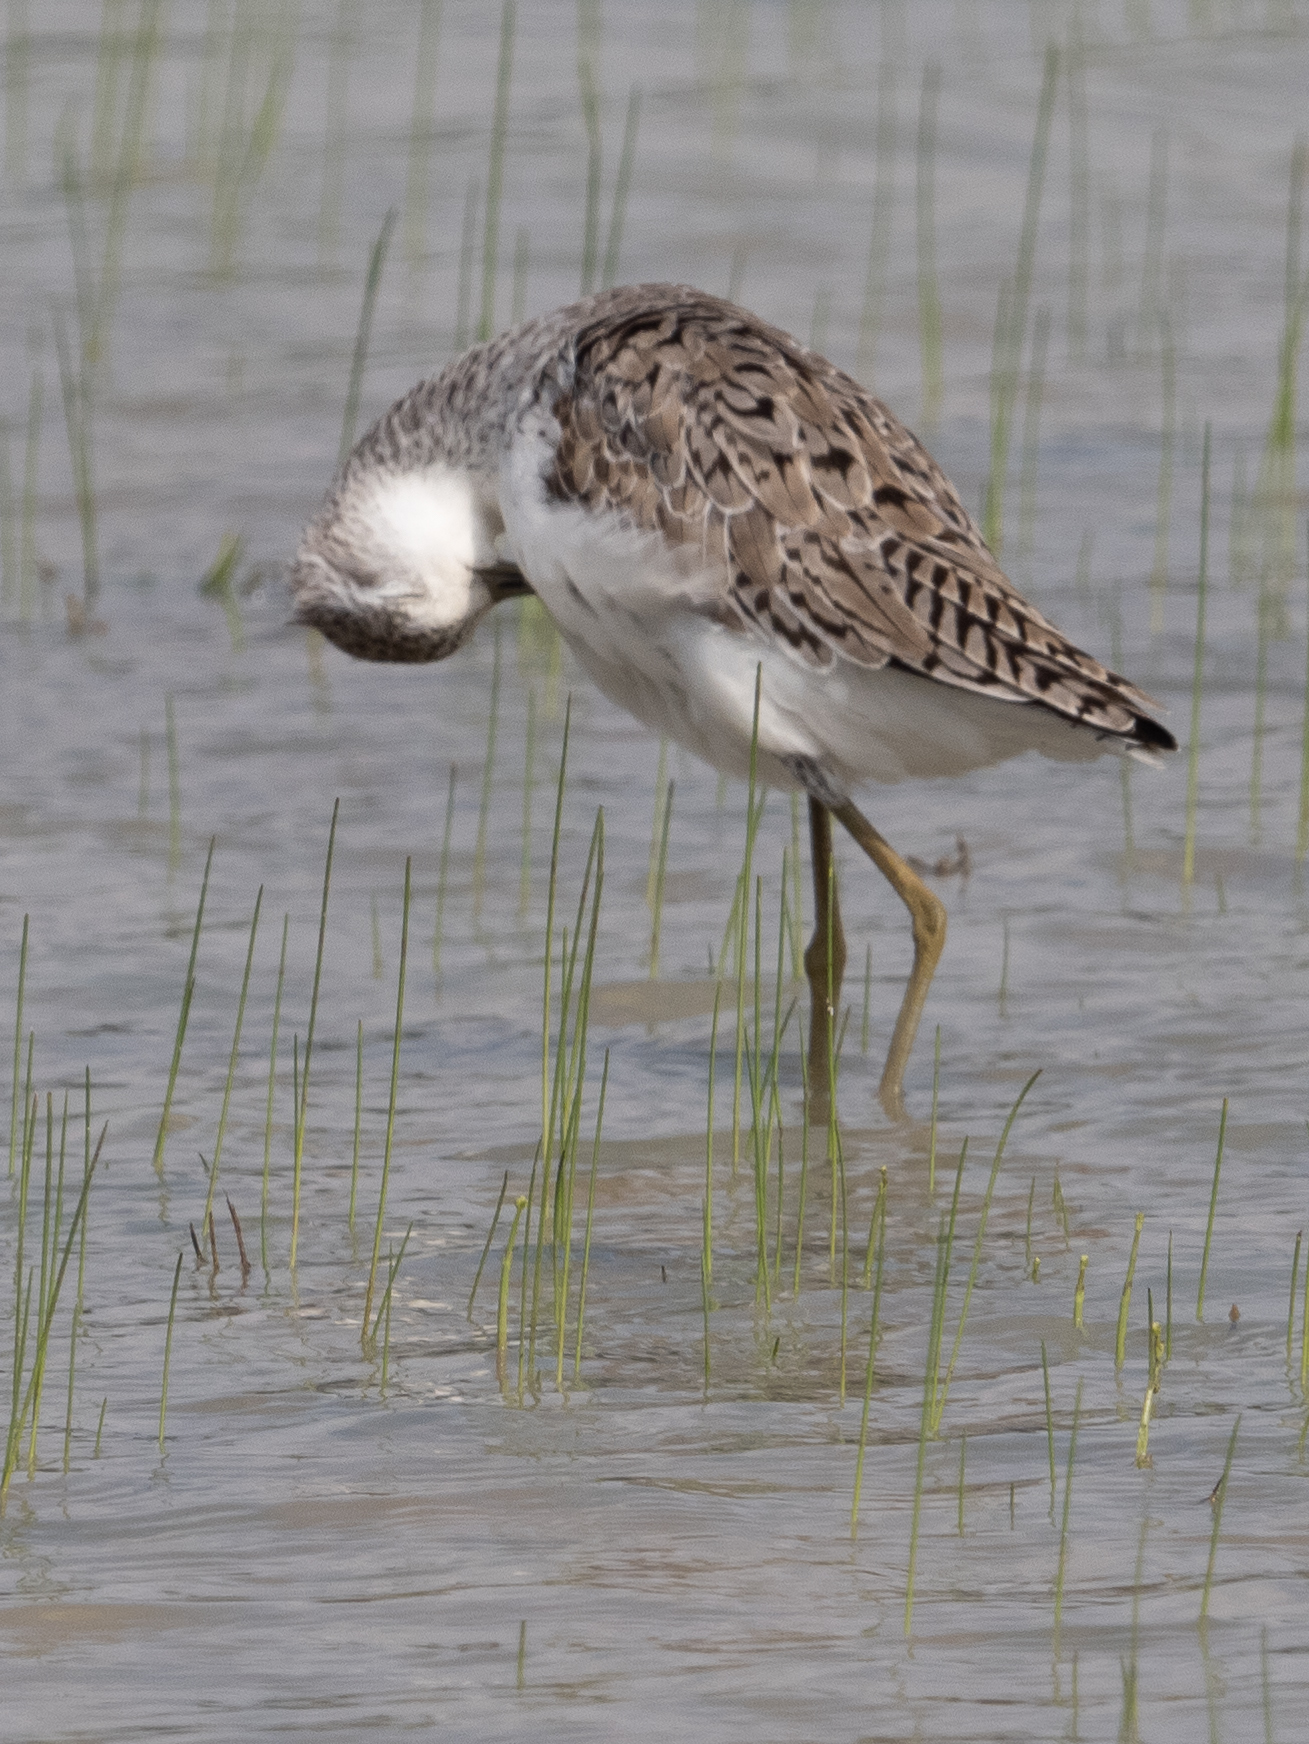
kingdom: Animalia
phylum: Chordata
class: Aves
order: Charadriiformes
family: Scolopacidae
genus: Tringa
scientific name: Tringa stagnatilis
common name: Marsh sandpiper
